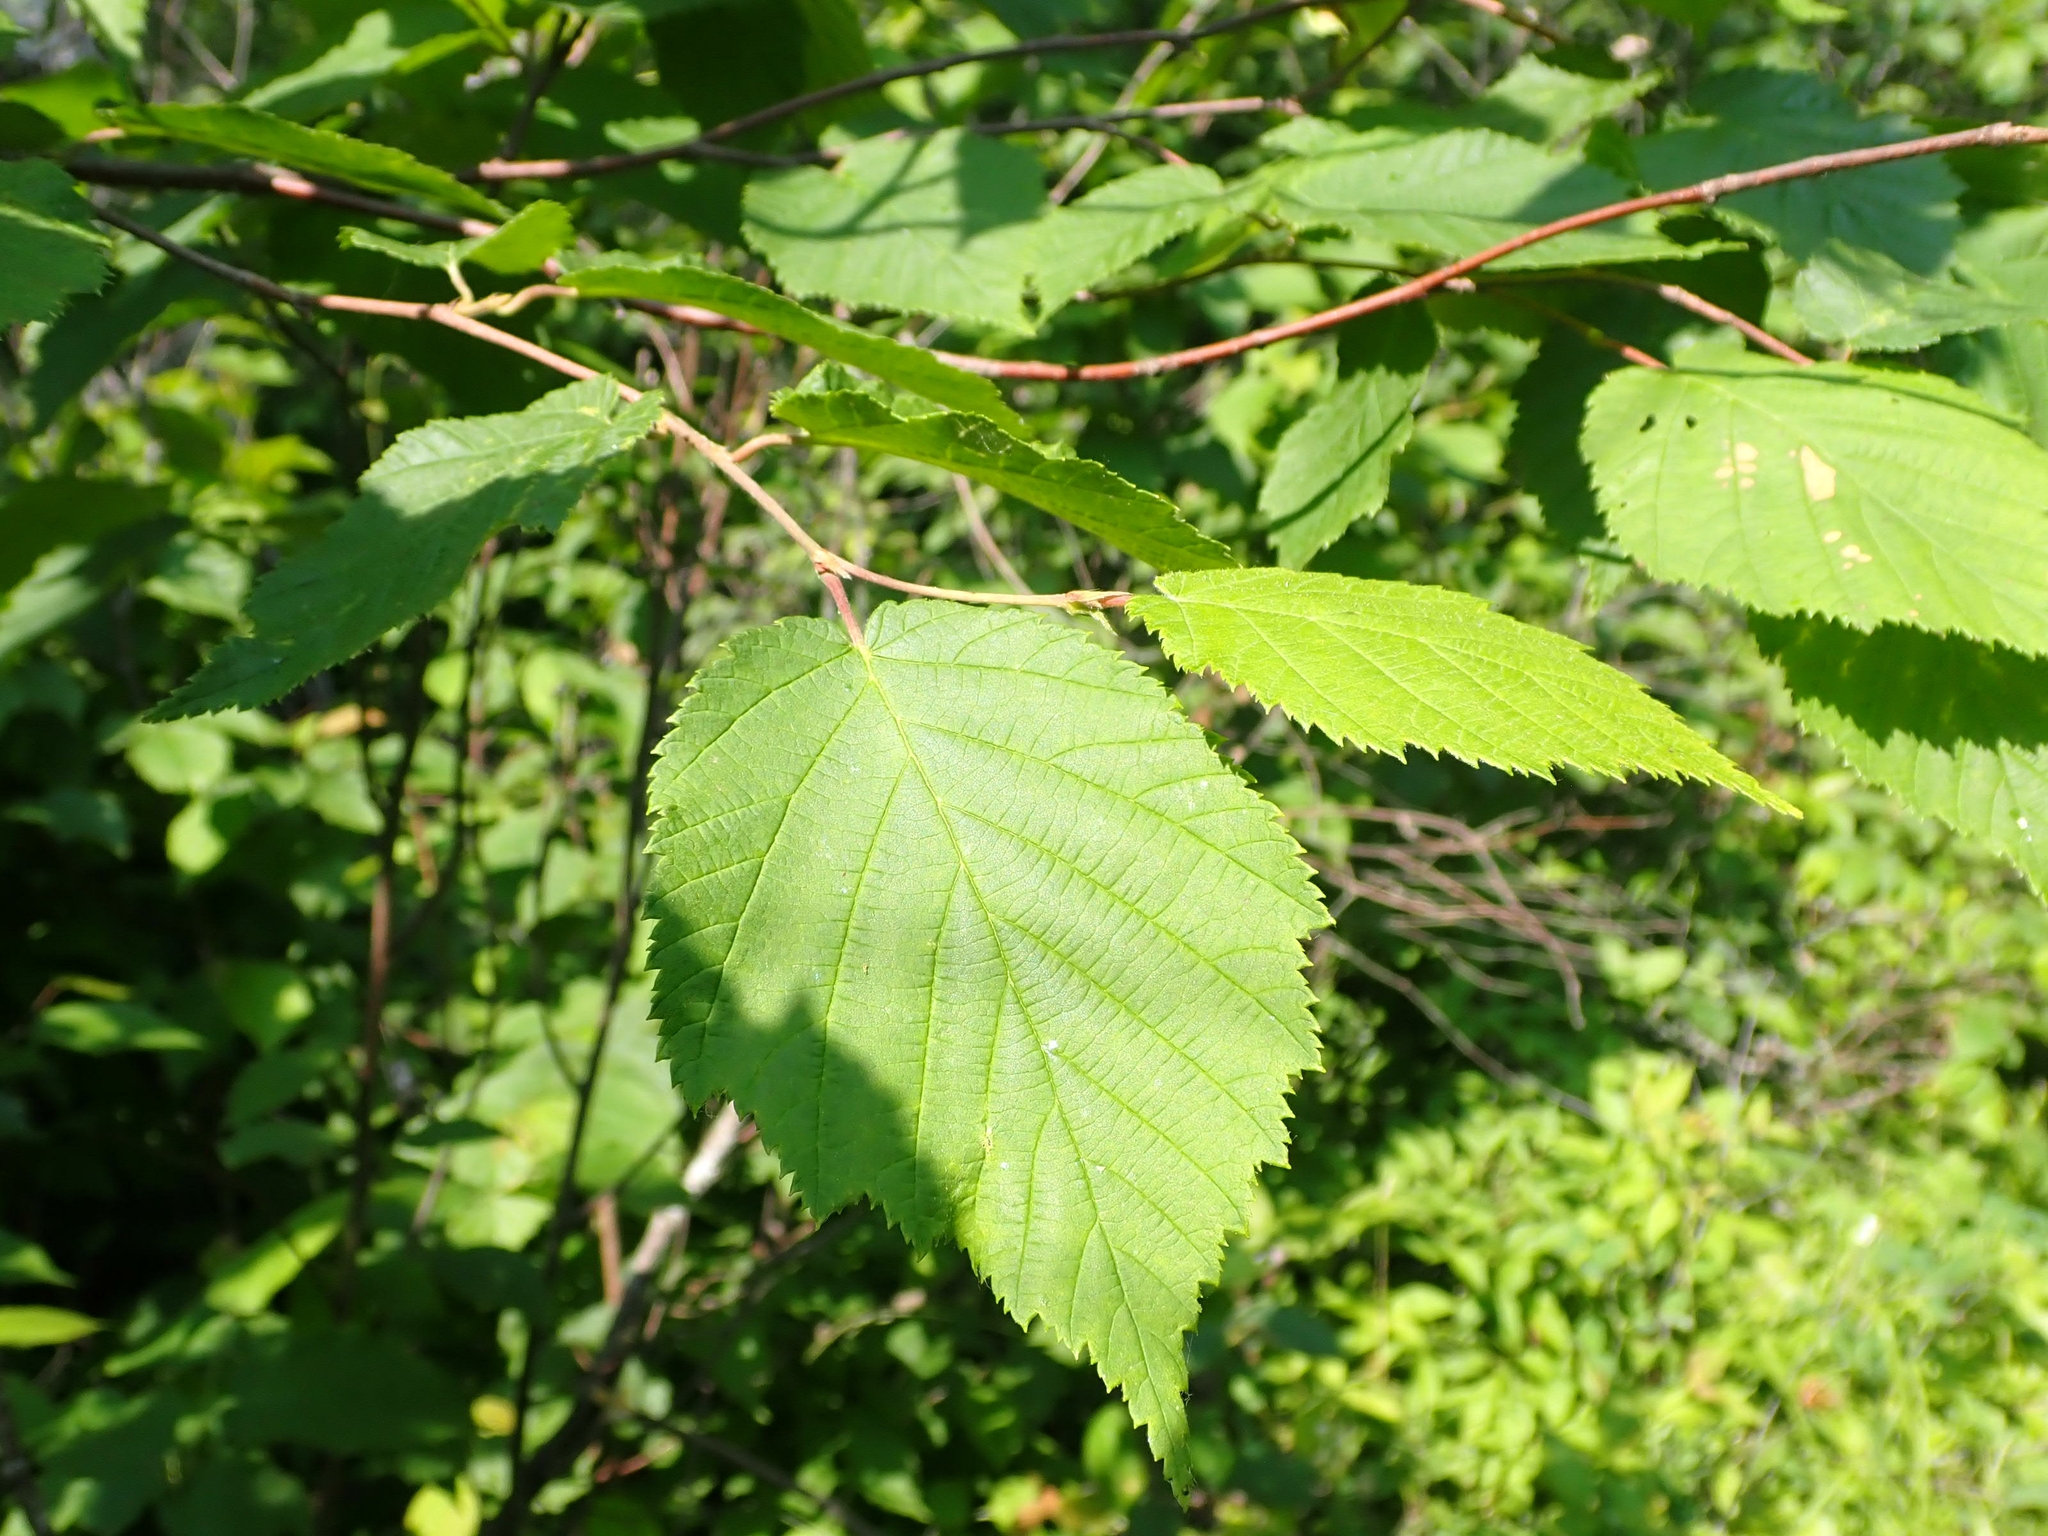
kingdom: Plantae
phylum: Tracheophyta
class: Magnoliopsida
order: Fagales
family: Betulaceae
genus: Corylus
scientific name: Corylus cornuta
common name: Beaked hazel
